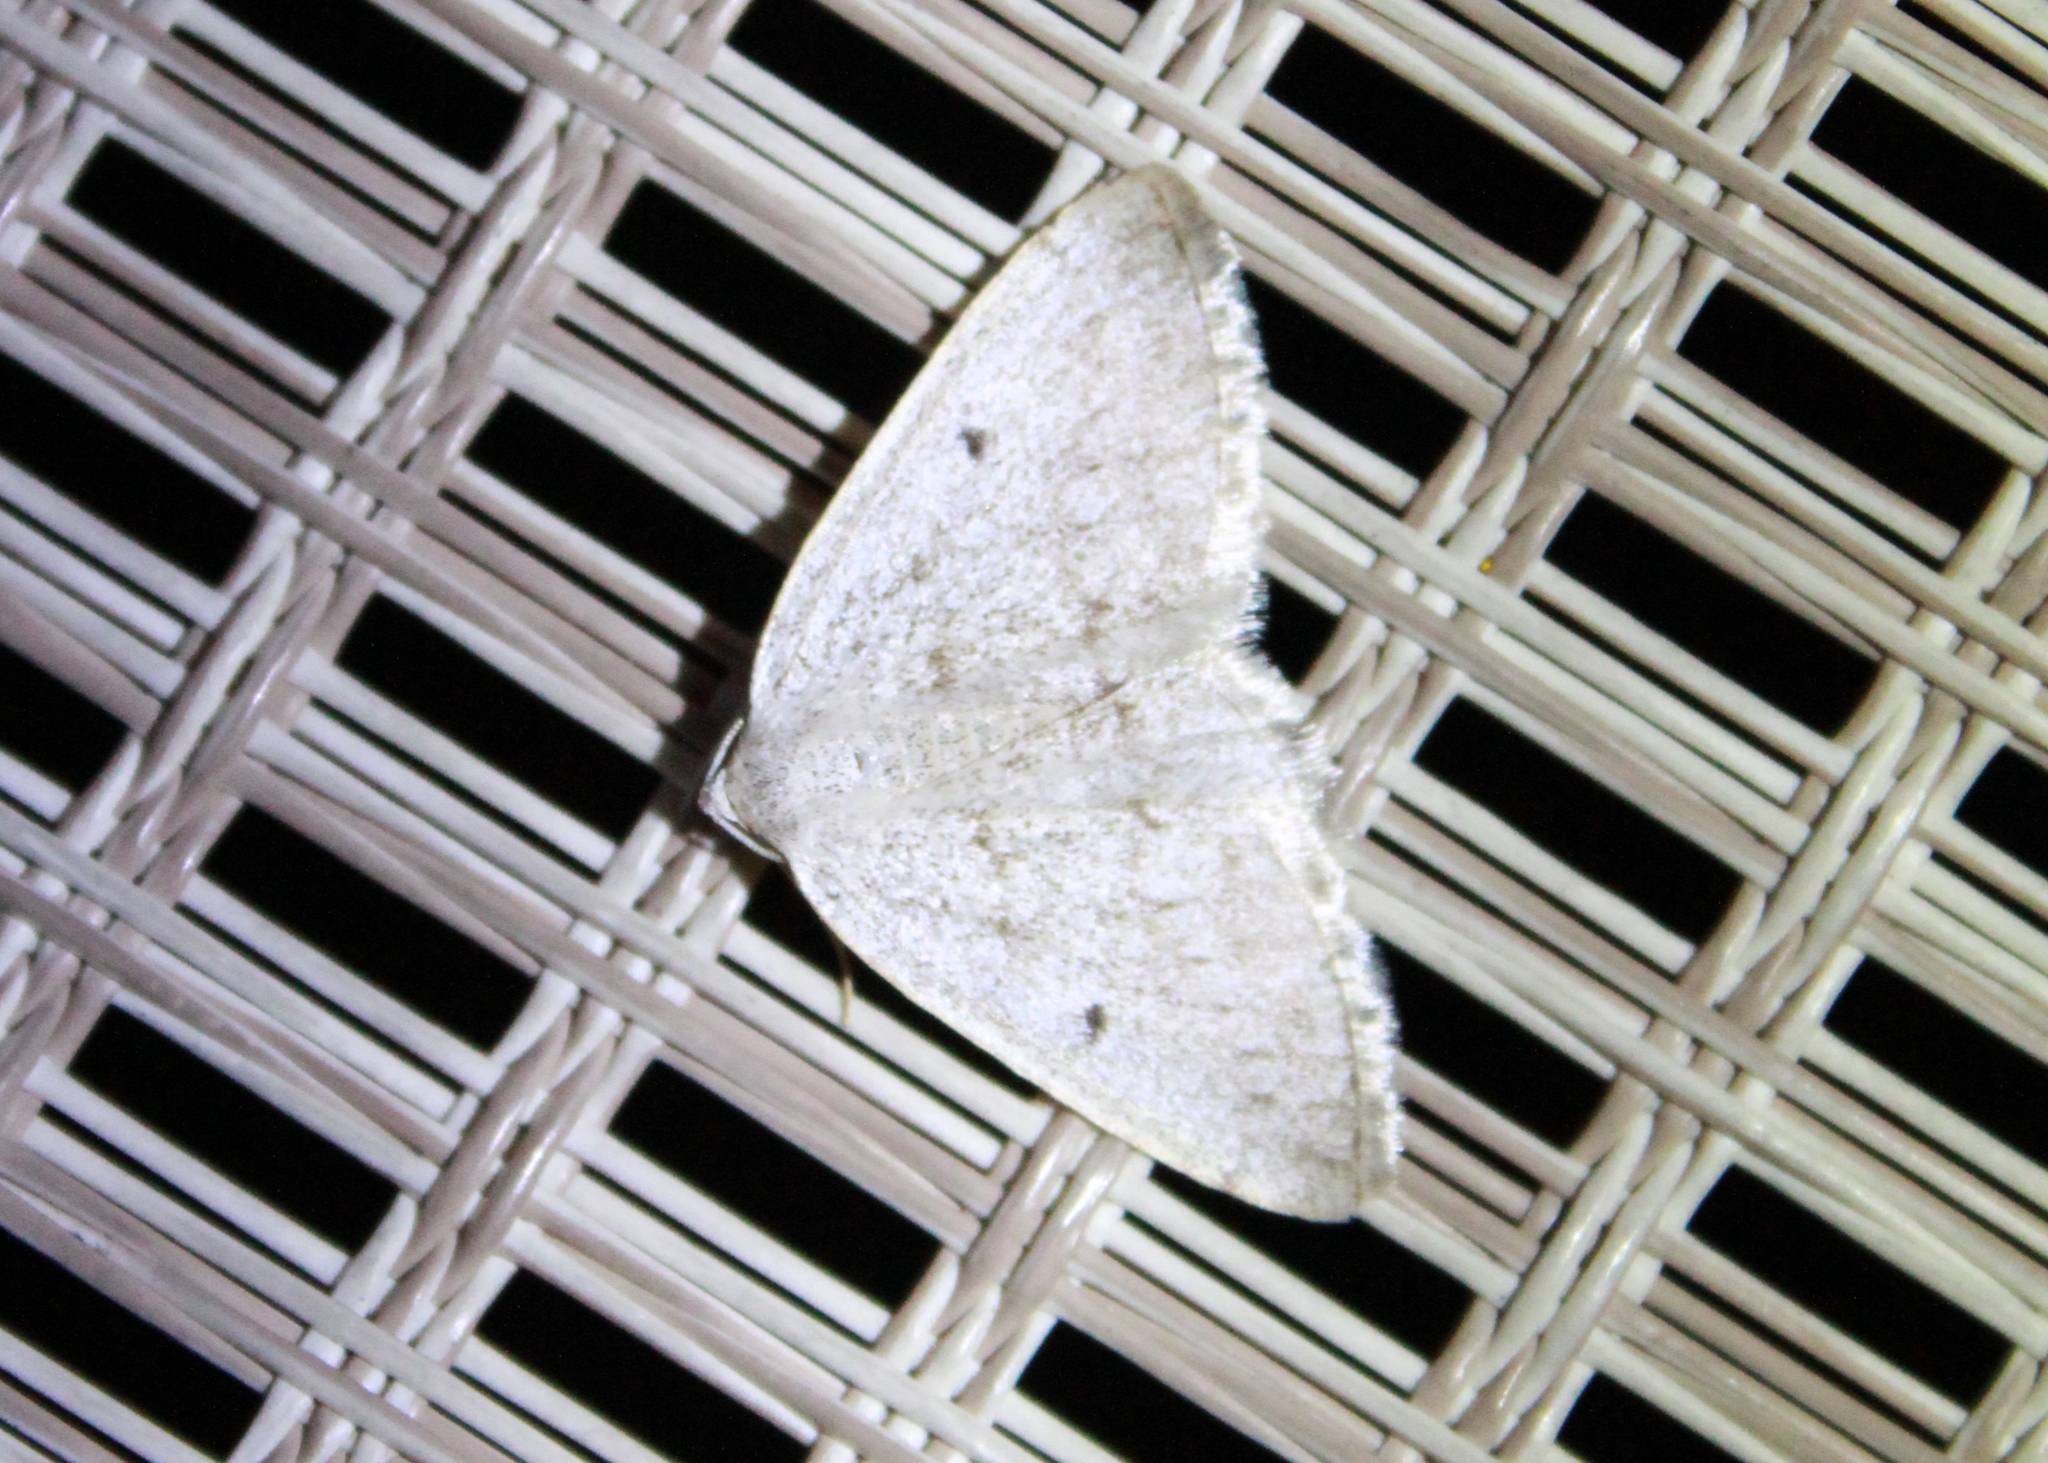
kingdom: Animalia
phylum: Arthropoda
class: Insecta
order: Lepidoptera
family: Geometridae
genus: Lomographa
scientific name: Lomographa glomeraria
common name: Gray spring moth
